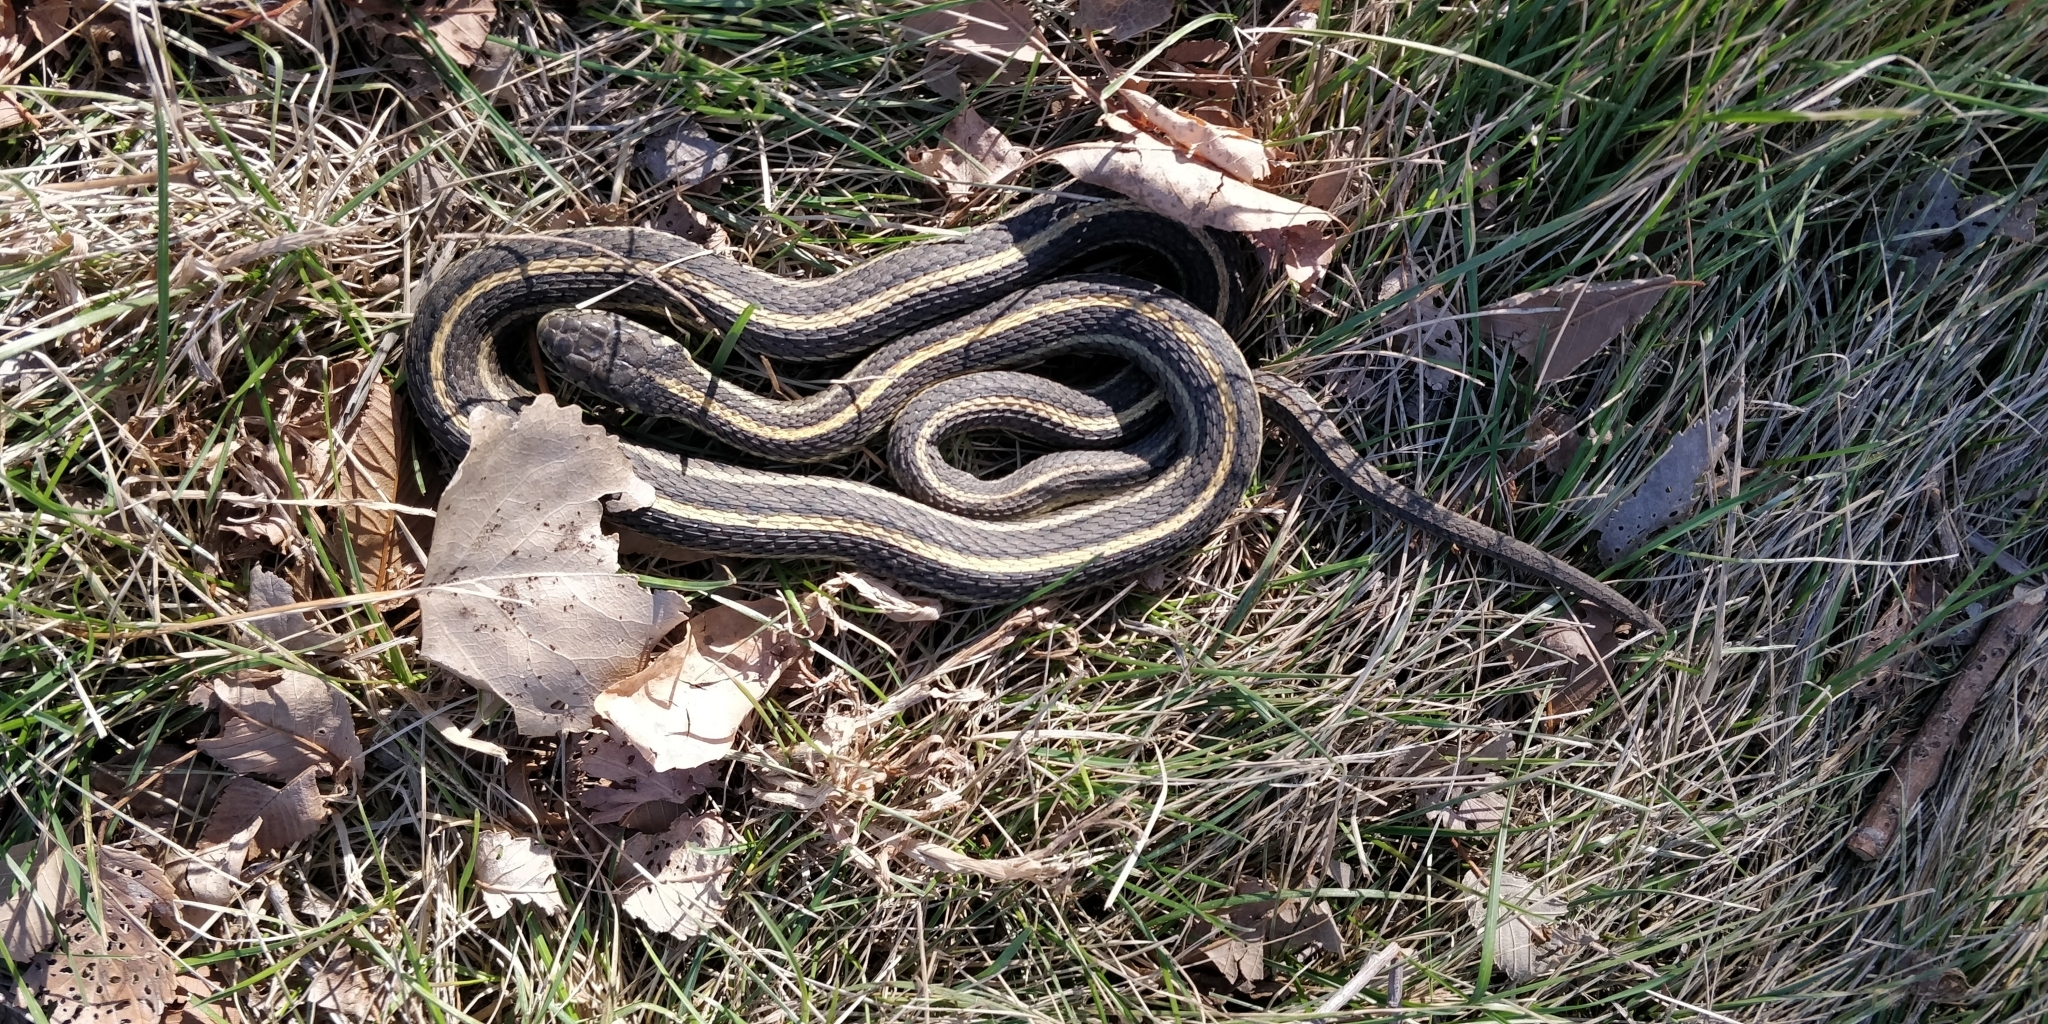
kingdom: Animalia
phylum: Chordata
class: Squamata
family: Colubridae
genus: Thamnophis
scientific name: Thamnophis radix
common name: Plains garter snake
